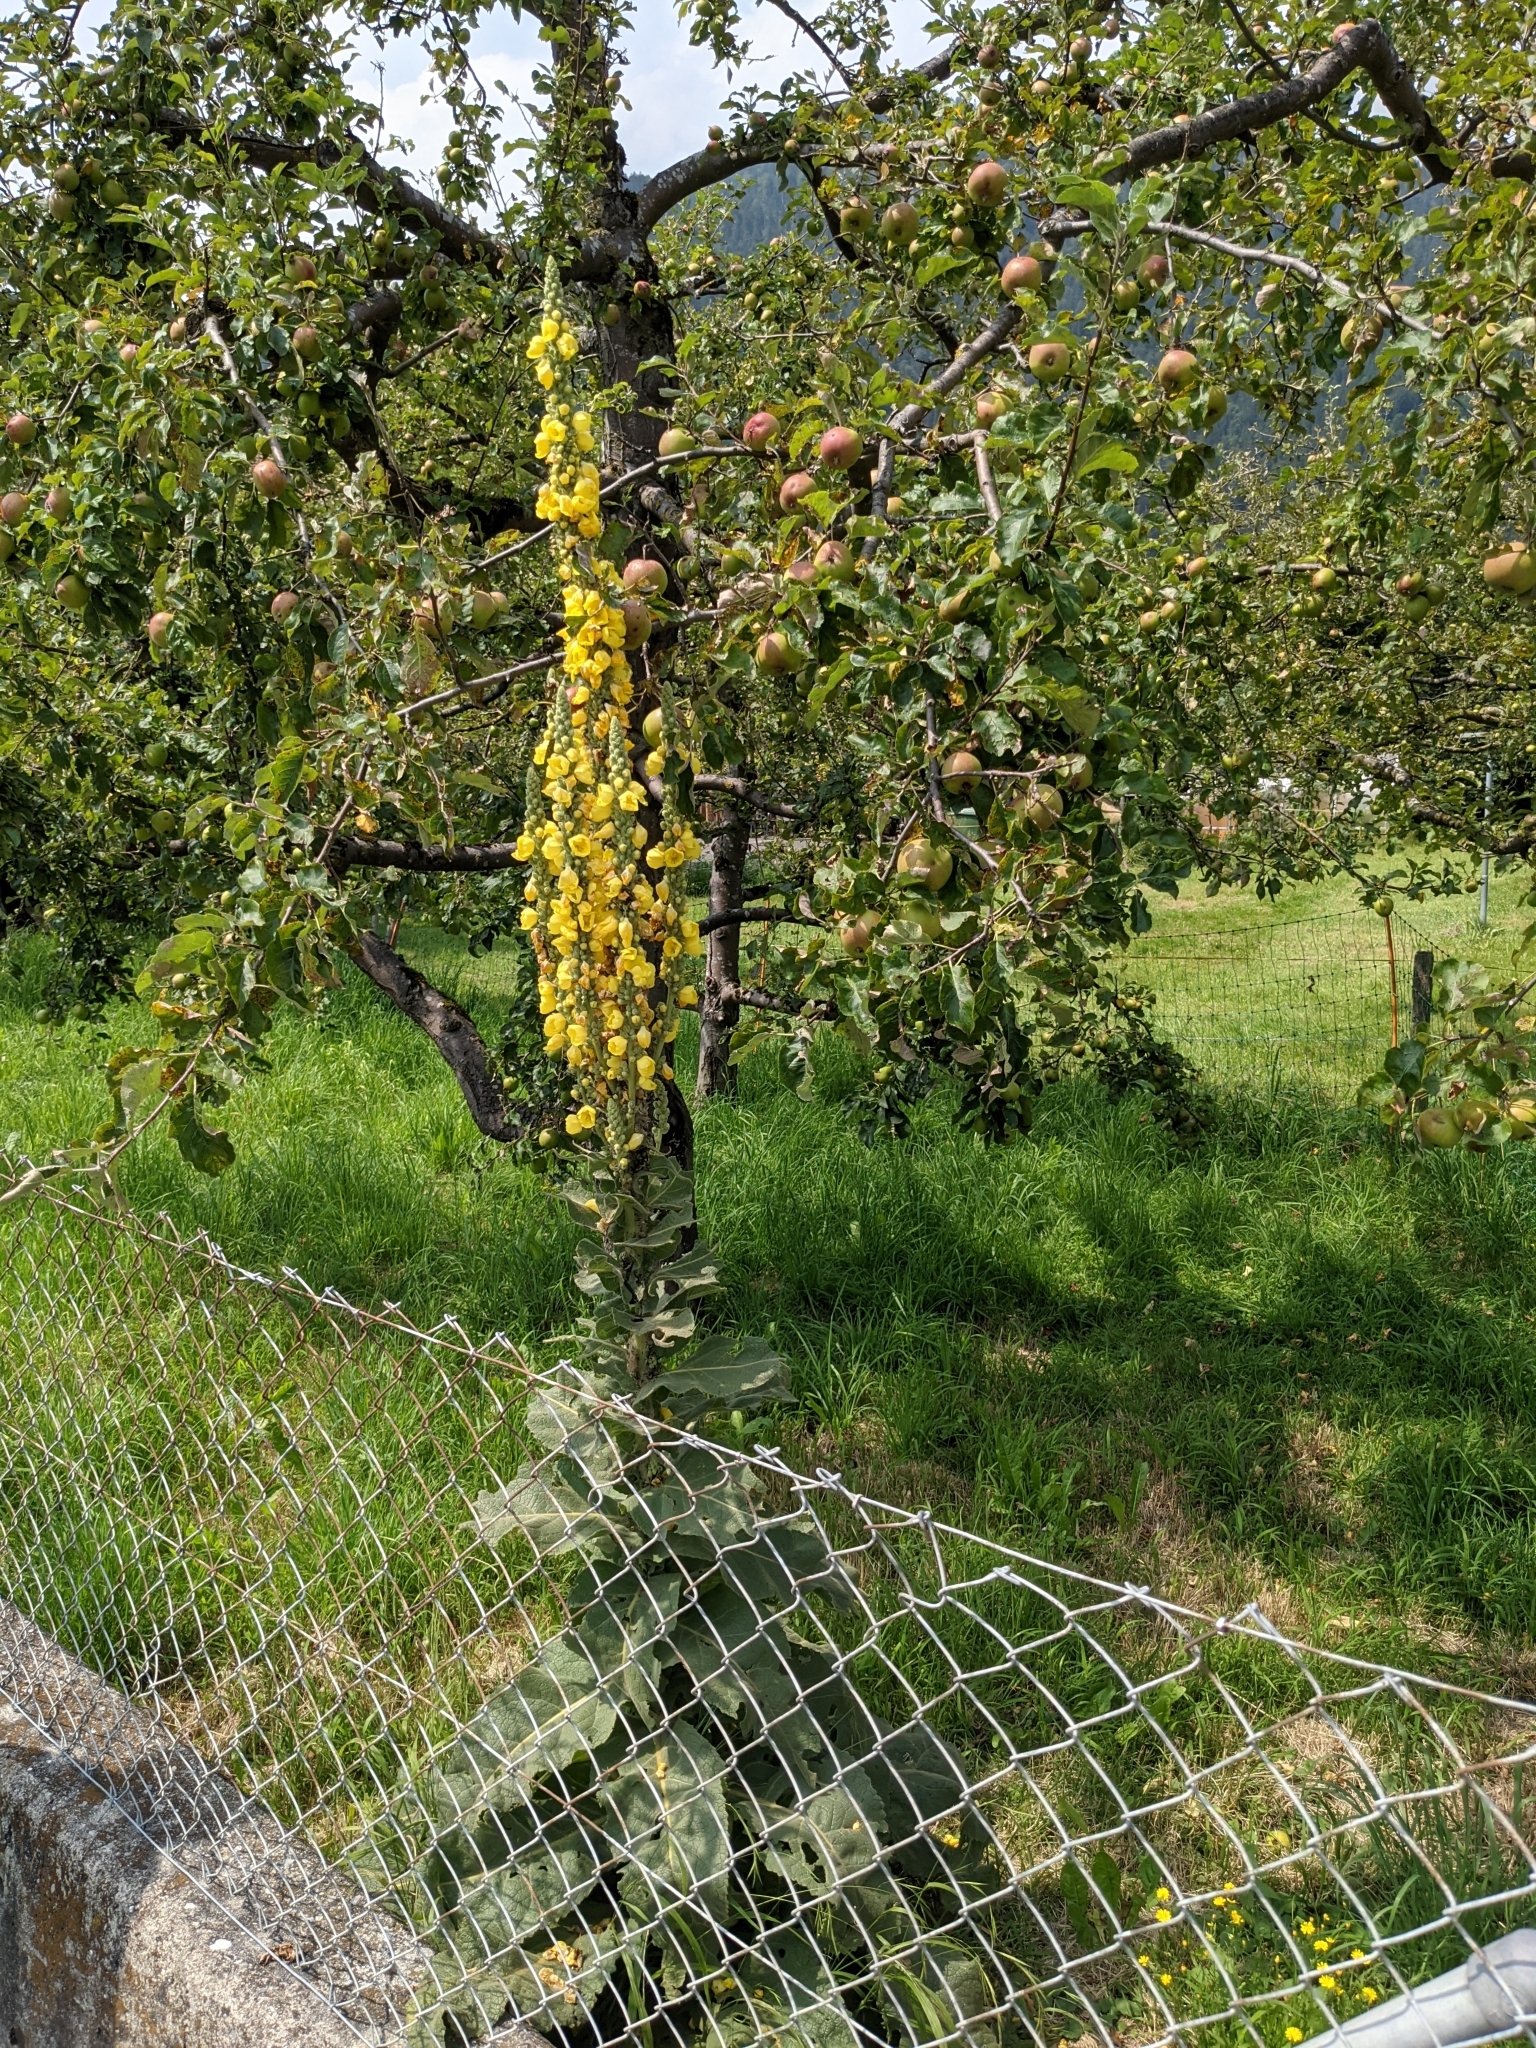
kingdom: Plantae
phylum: Tracheophyta
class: Magnoliopsida
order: Lamiales
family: Scrophulariaceae
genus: Verbascum
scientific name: Verbascum phlomoides
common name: Orange mullein
